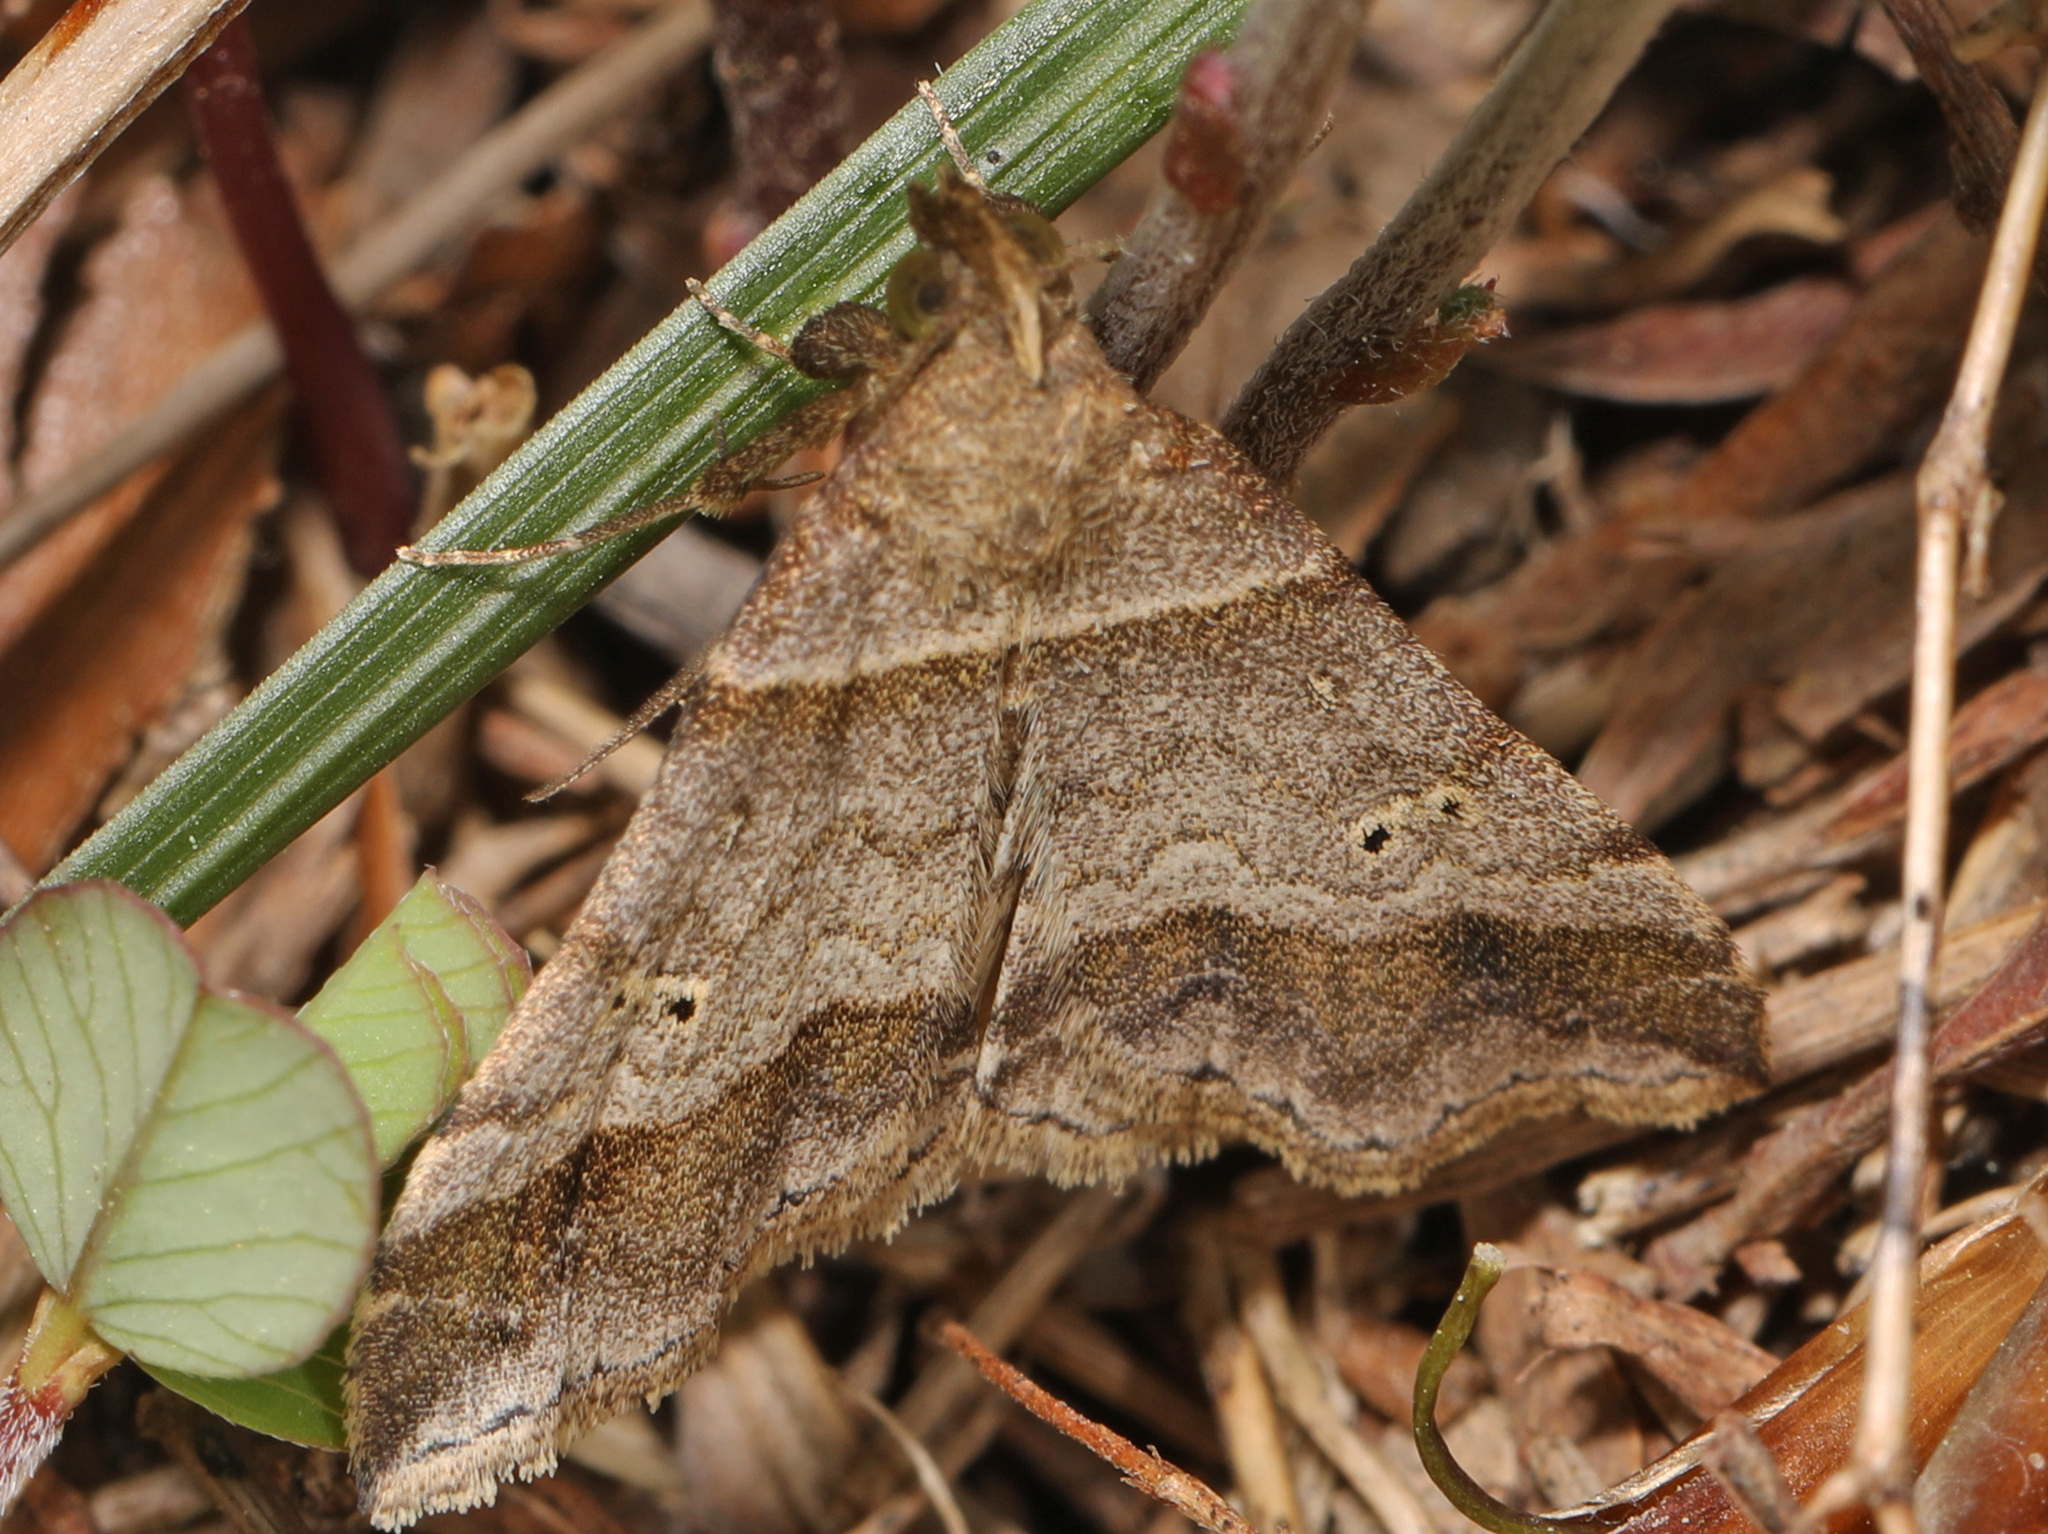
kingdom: Animalia
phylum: Arthropoda
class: Insecta
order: Lepidoptera
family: Erebidae
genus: Phaeolita
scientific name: Phaeolita pyramusalis
